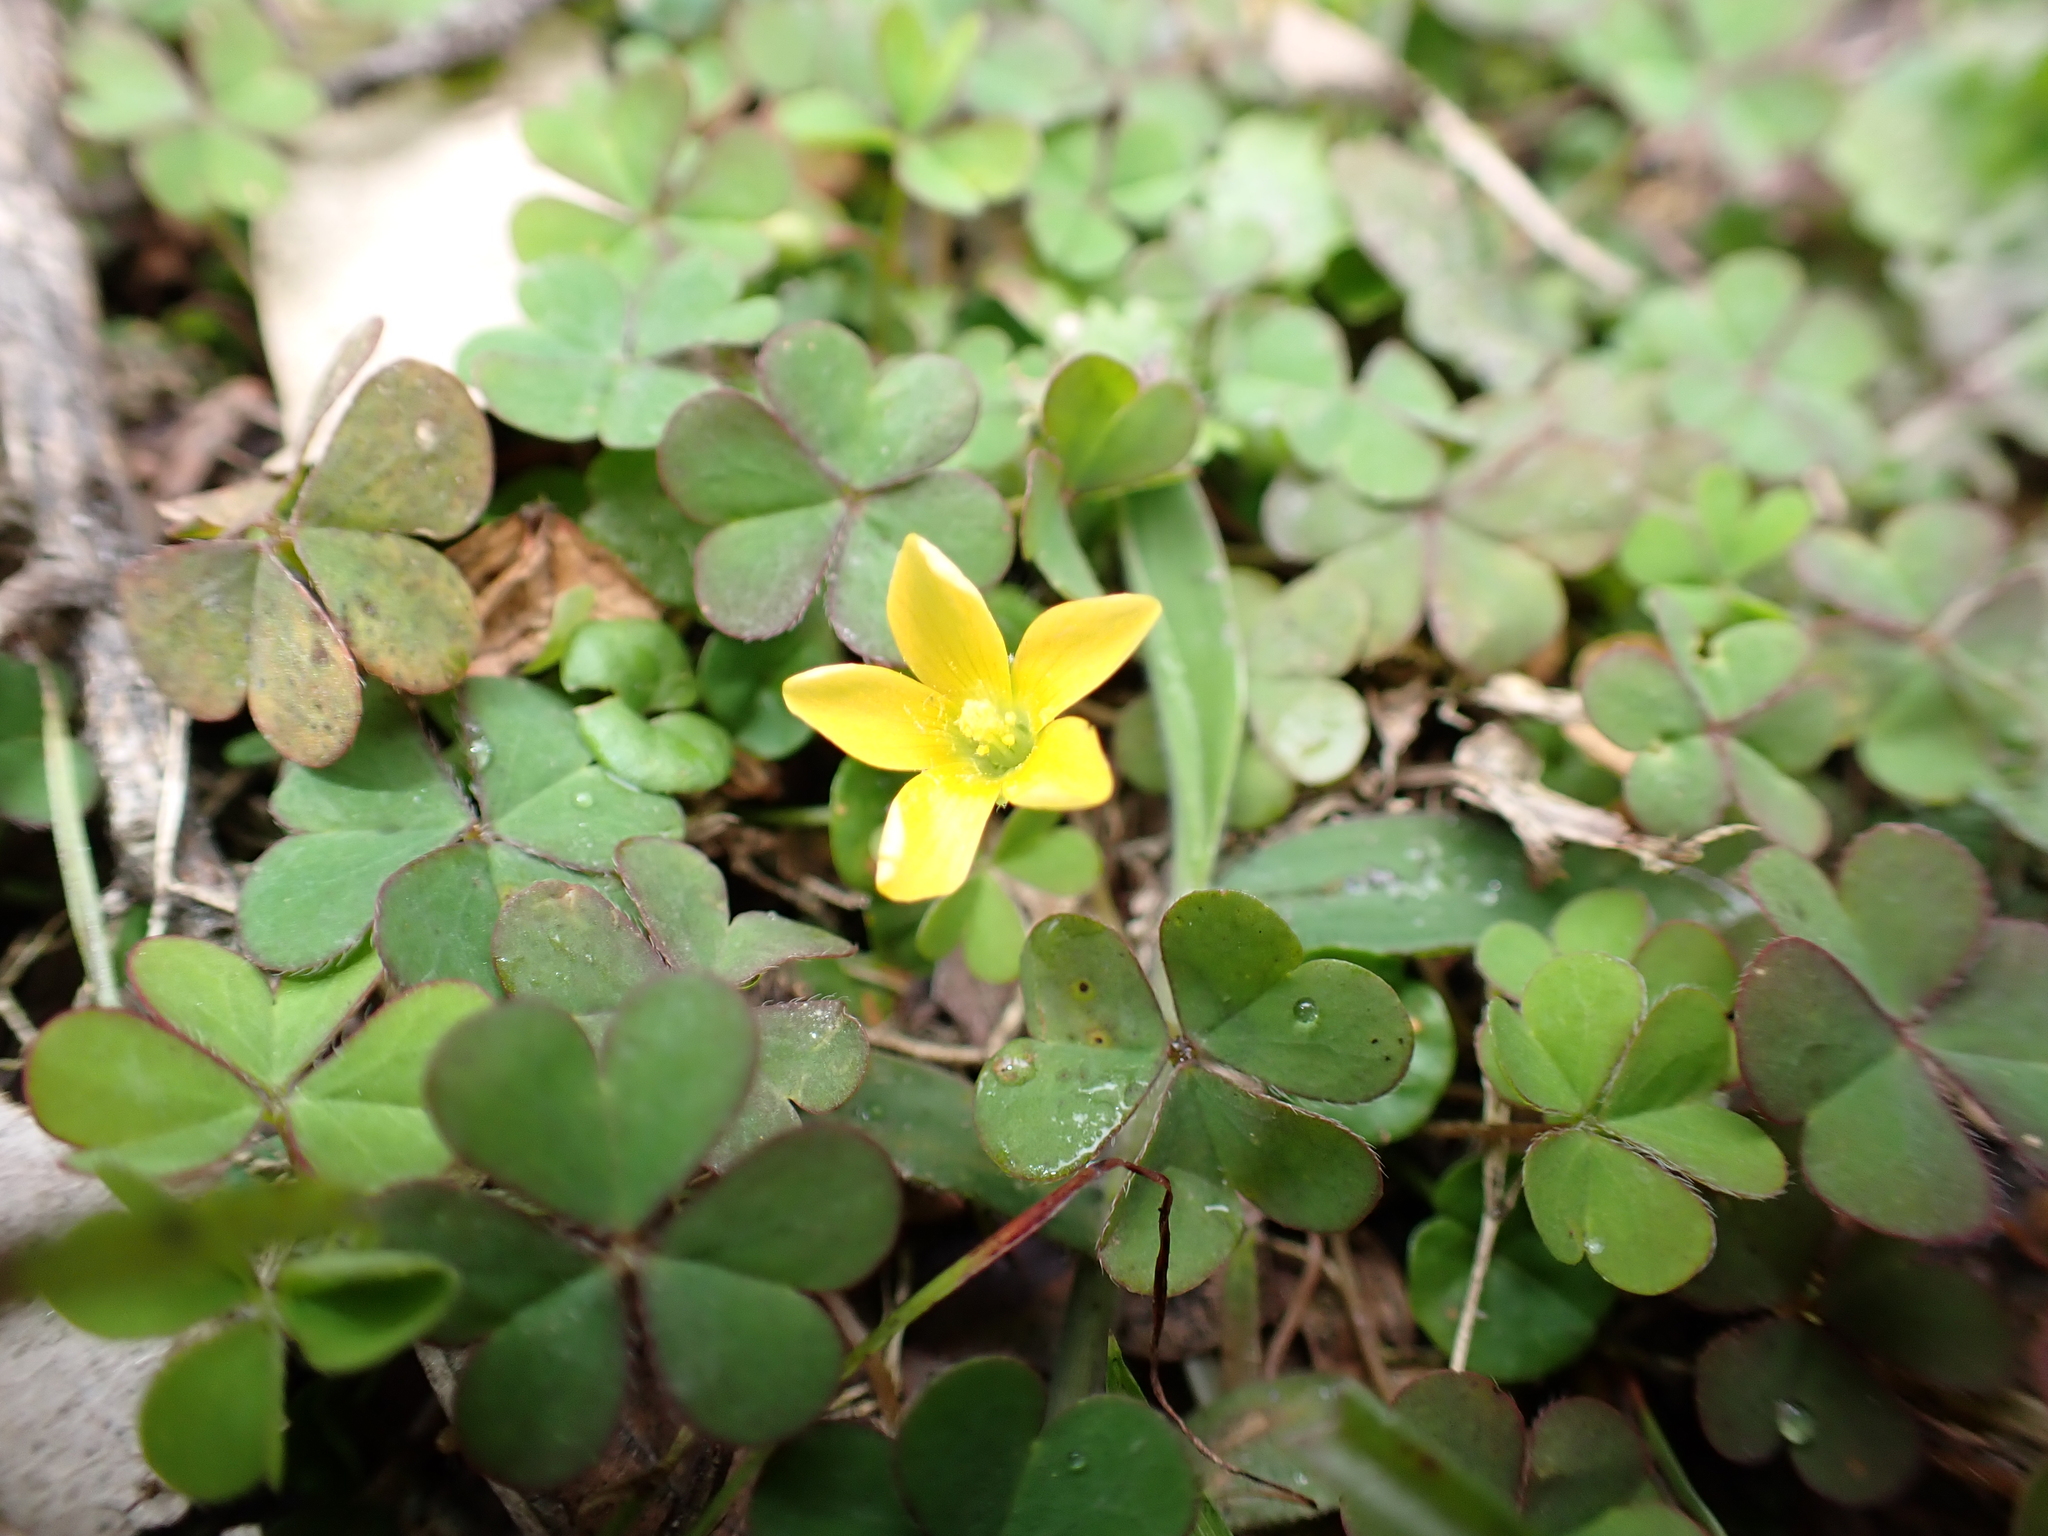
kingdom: Plantae
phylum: Tracheophyta
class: Magnoliopsida
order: Oxalidales
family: Oxalidaceae
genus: Oxalis
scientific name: Oxalis corniculata
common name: Procumbent yellow-sorrel
